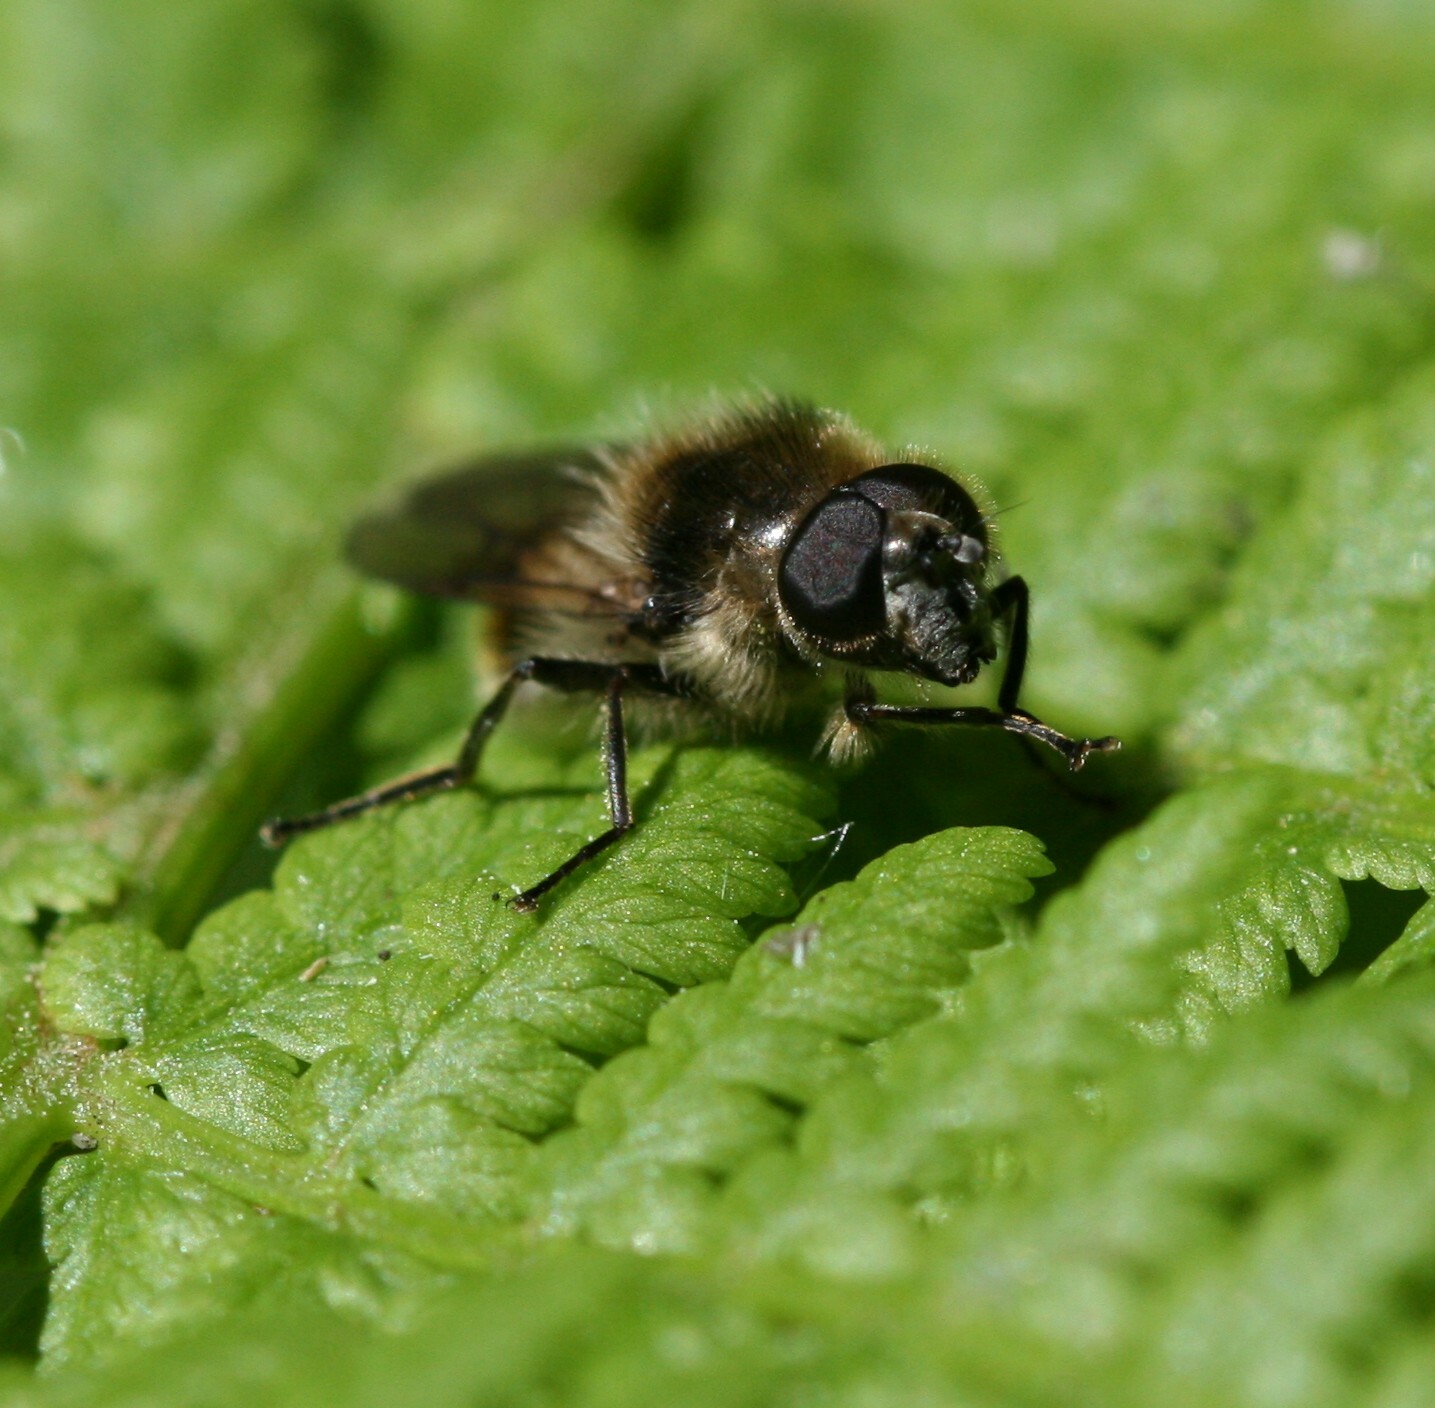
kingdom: Animalia
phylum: Arthropoda
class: Insecta
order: Diptera
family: Syrphidae
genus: Cheilosia
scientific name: Cheilosia illustrata
